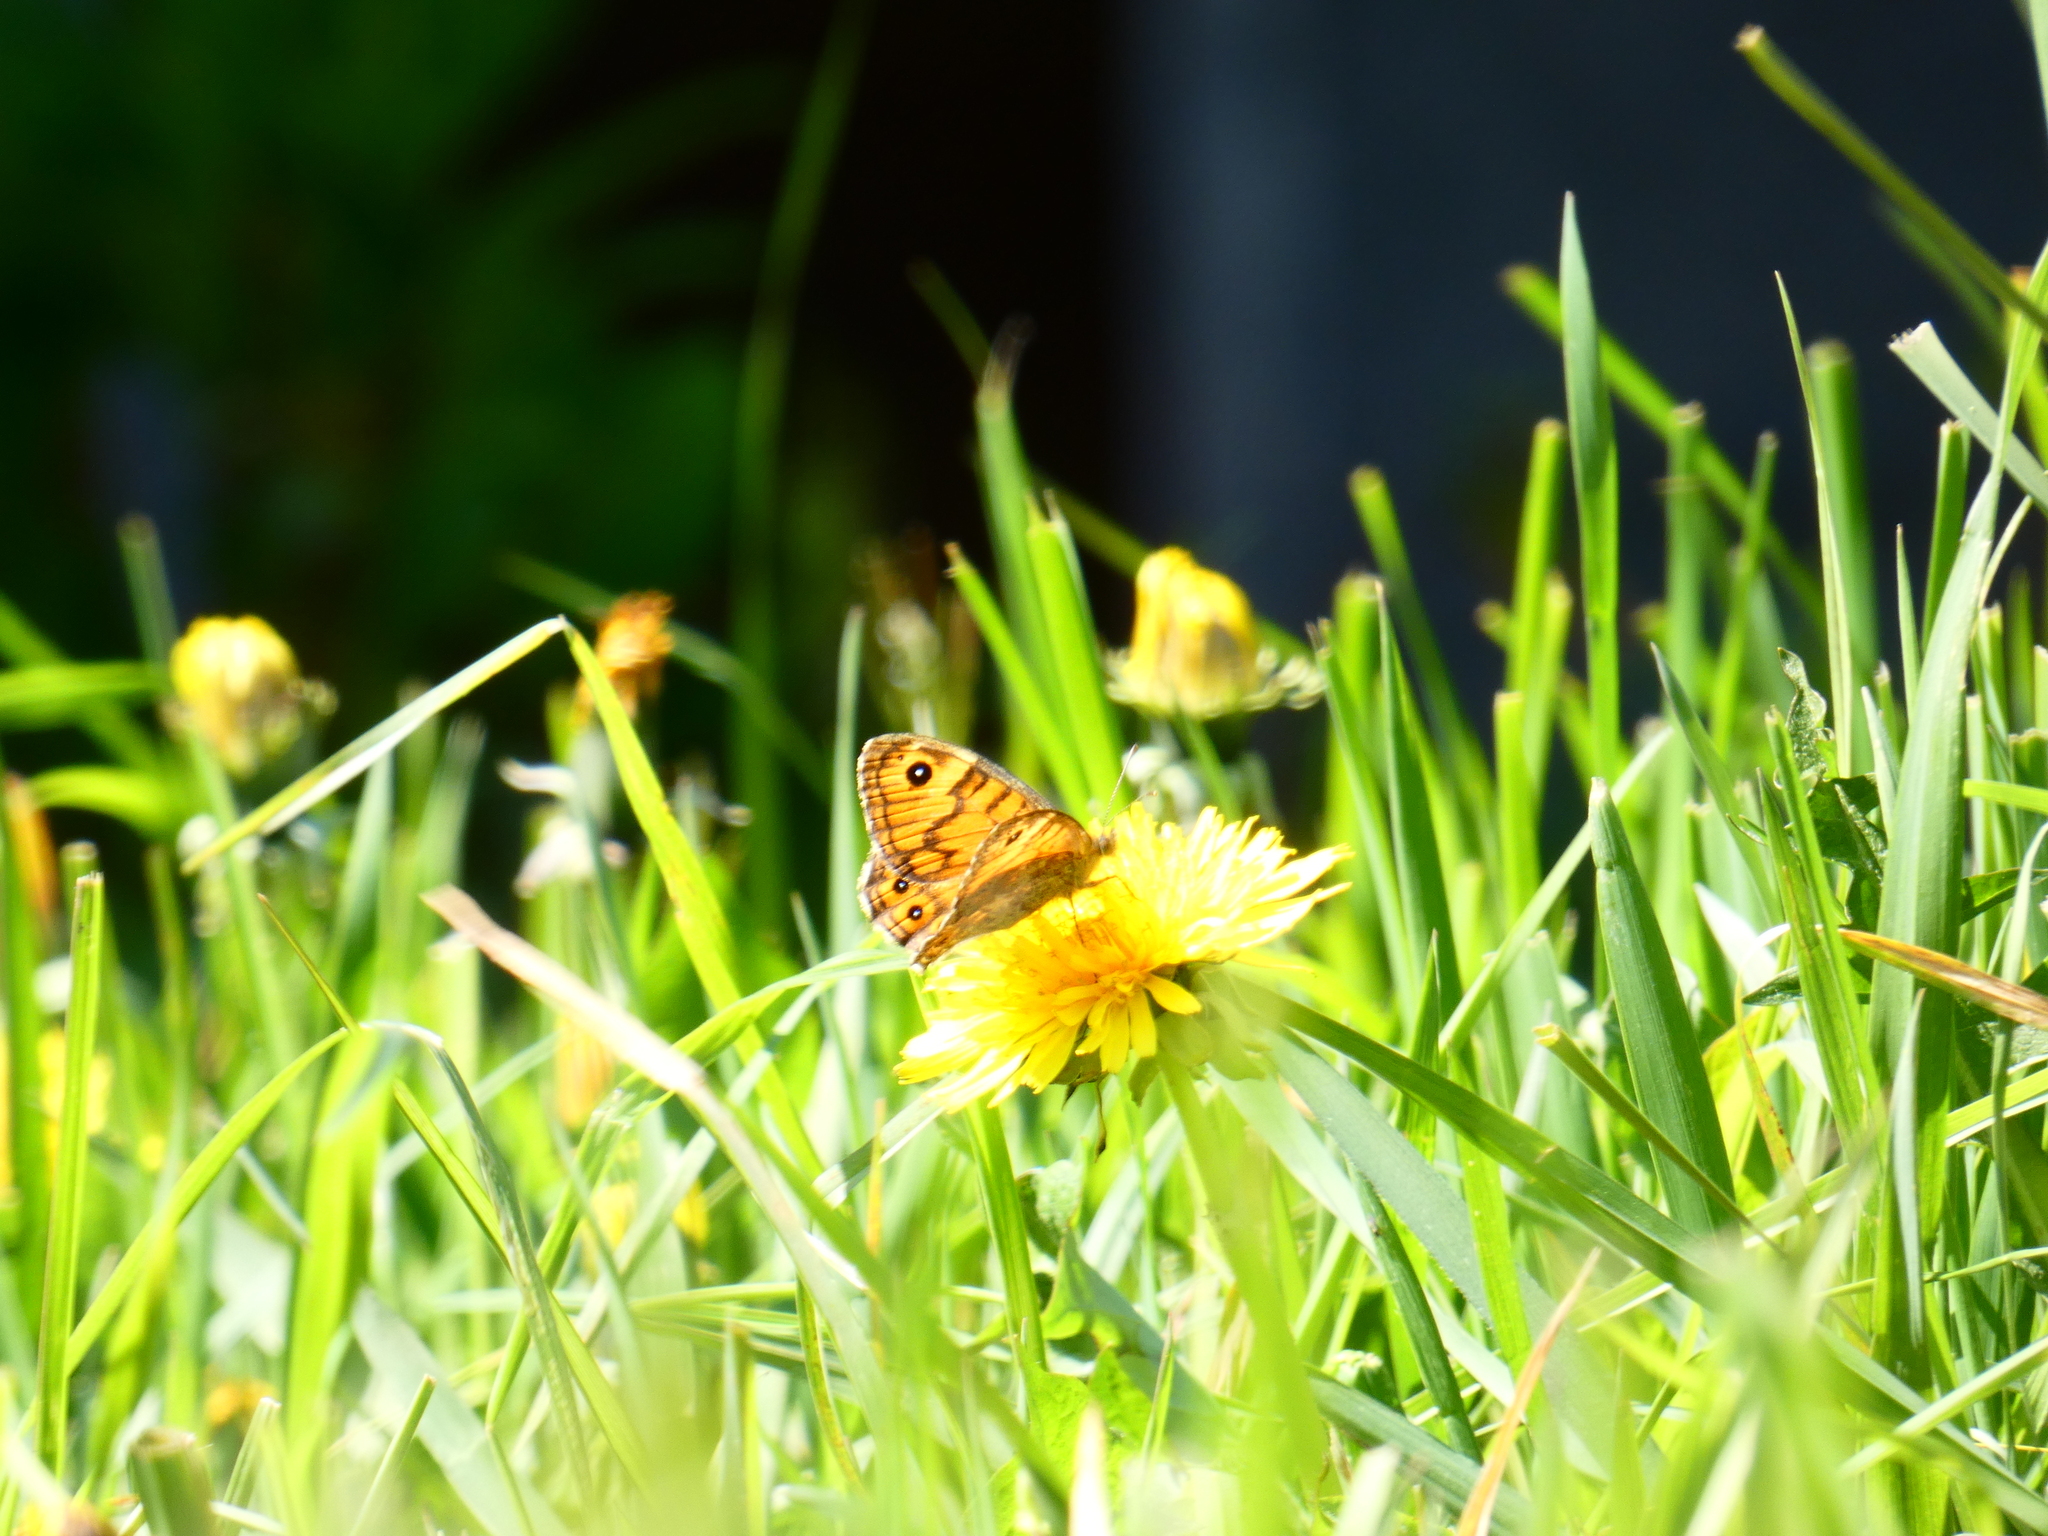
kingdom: Animalia
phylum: Arthropoda
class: Insecta
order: Lepidoptera
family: Nymphalidae
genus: Pararge
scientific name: Pararge Lasiommata megera
